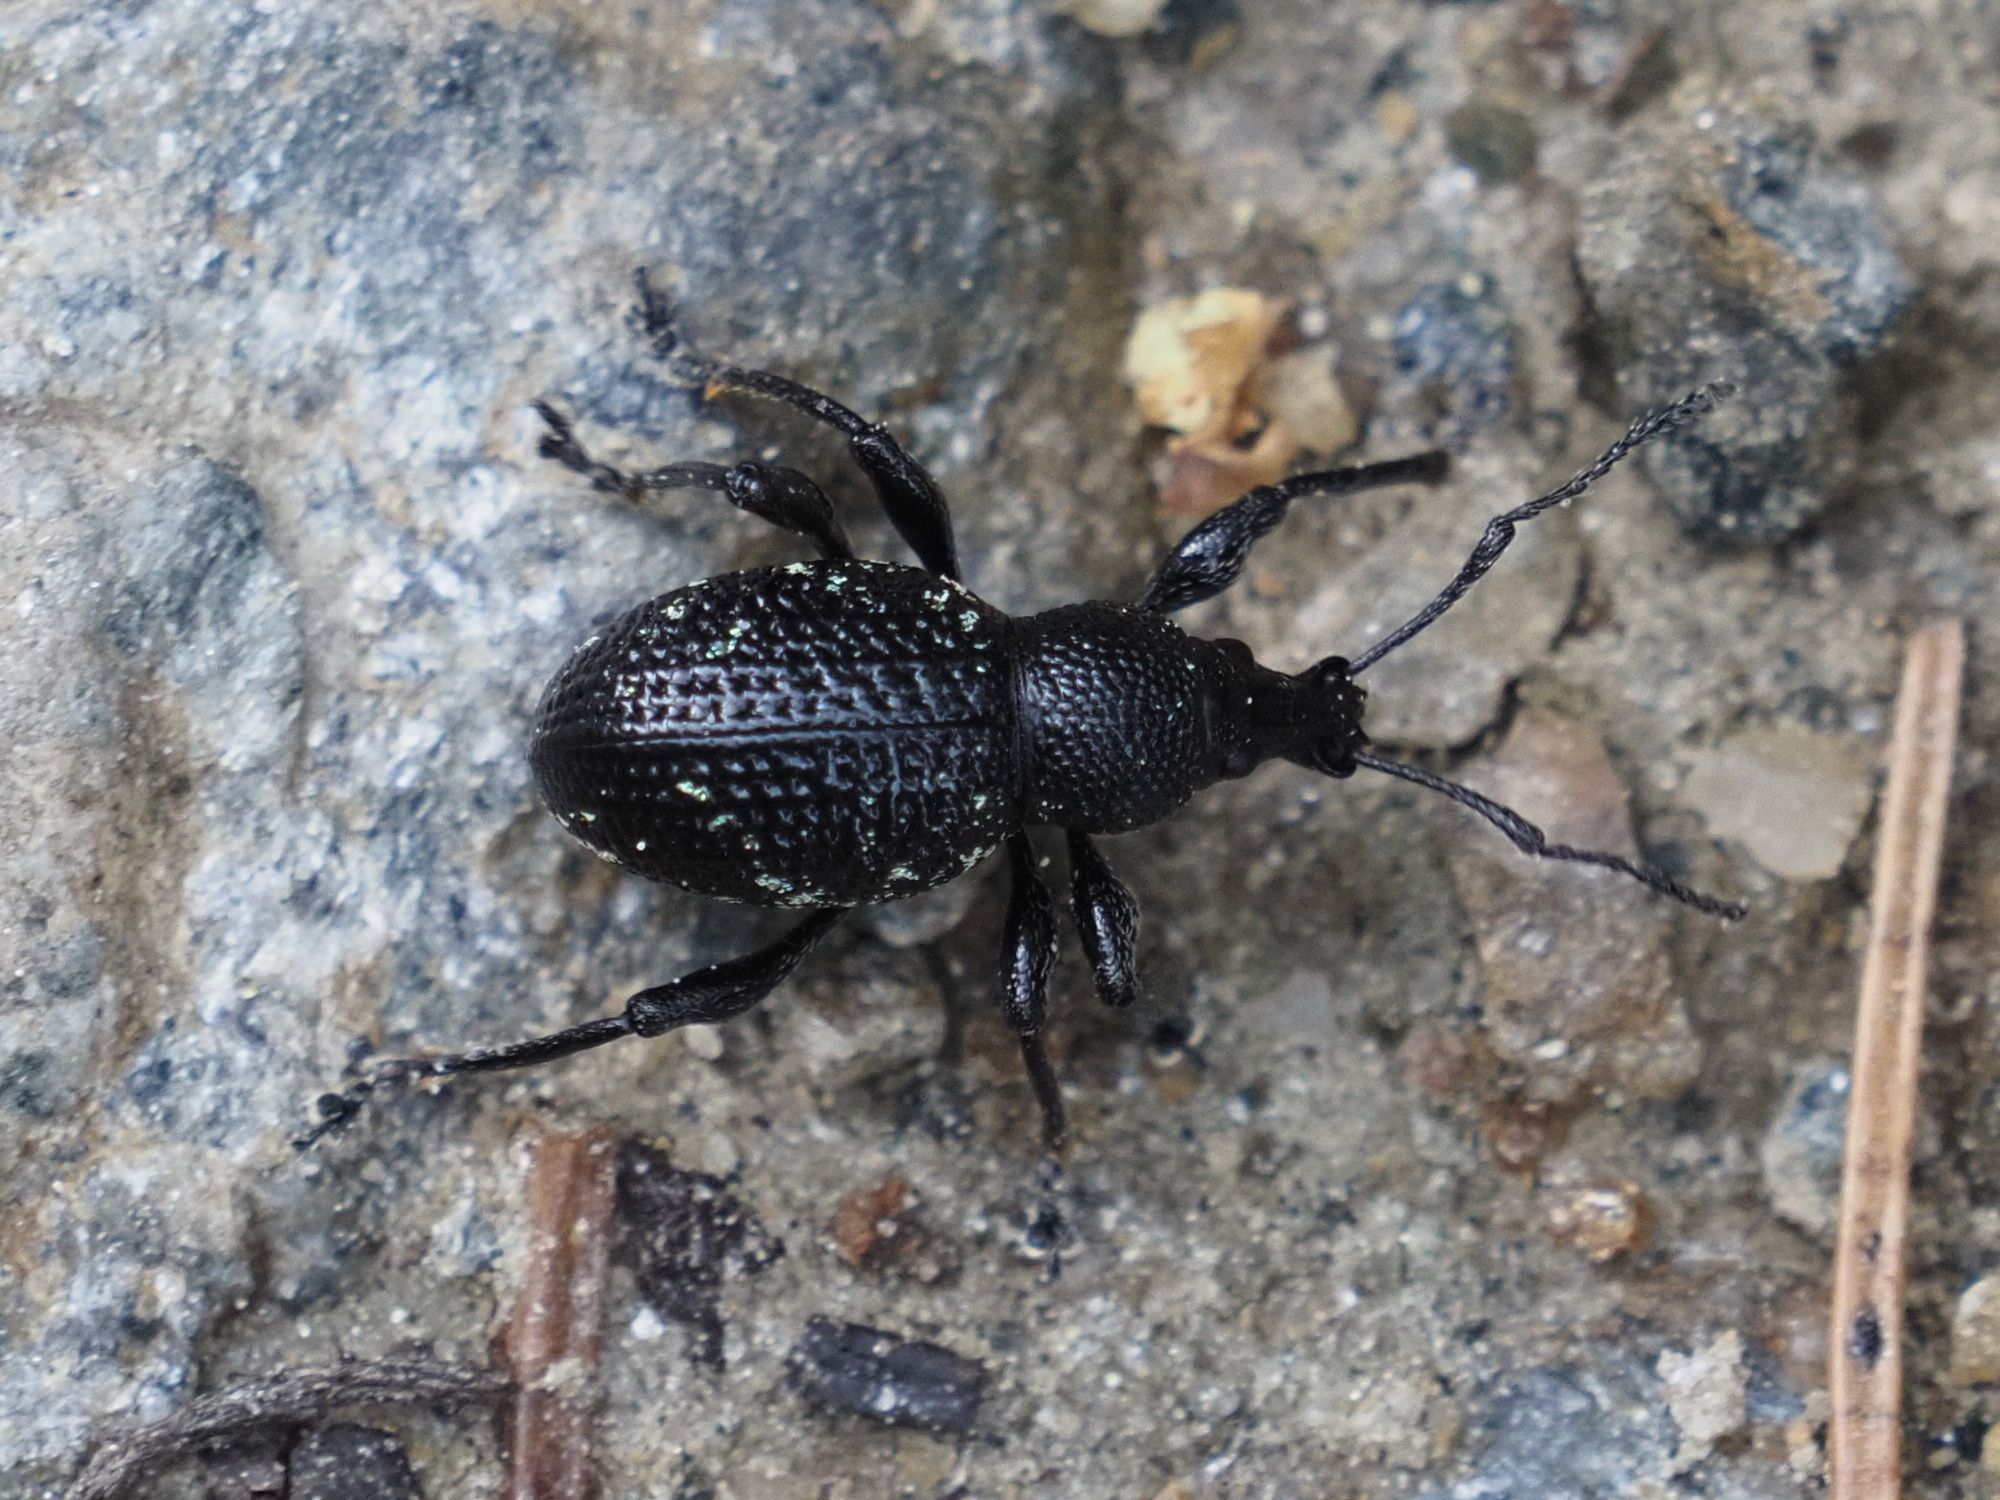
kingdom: Animalia
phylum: Arthropoda
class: Insecta
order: Coleoptera
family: Curculionidae
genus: Otiorhynchus
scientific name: Otiorhynchus gemmatus
